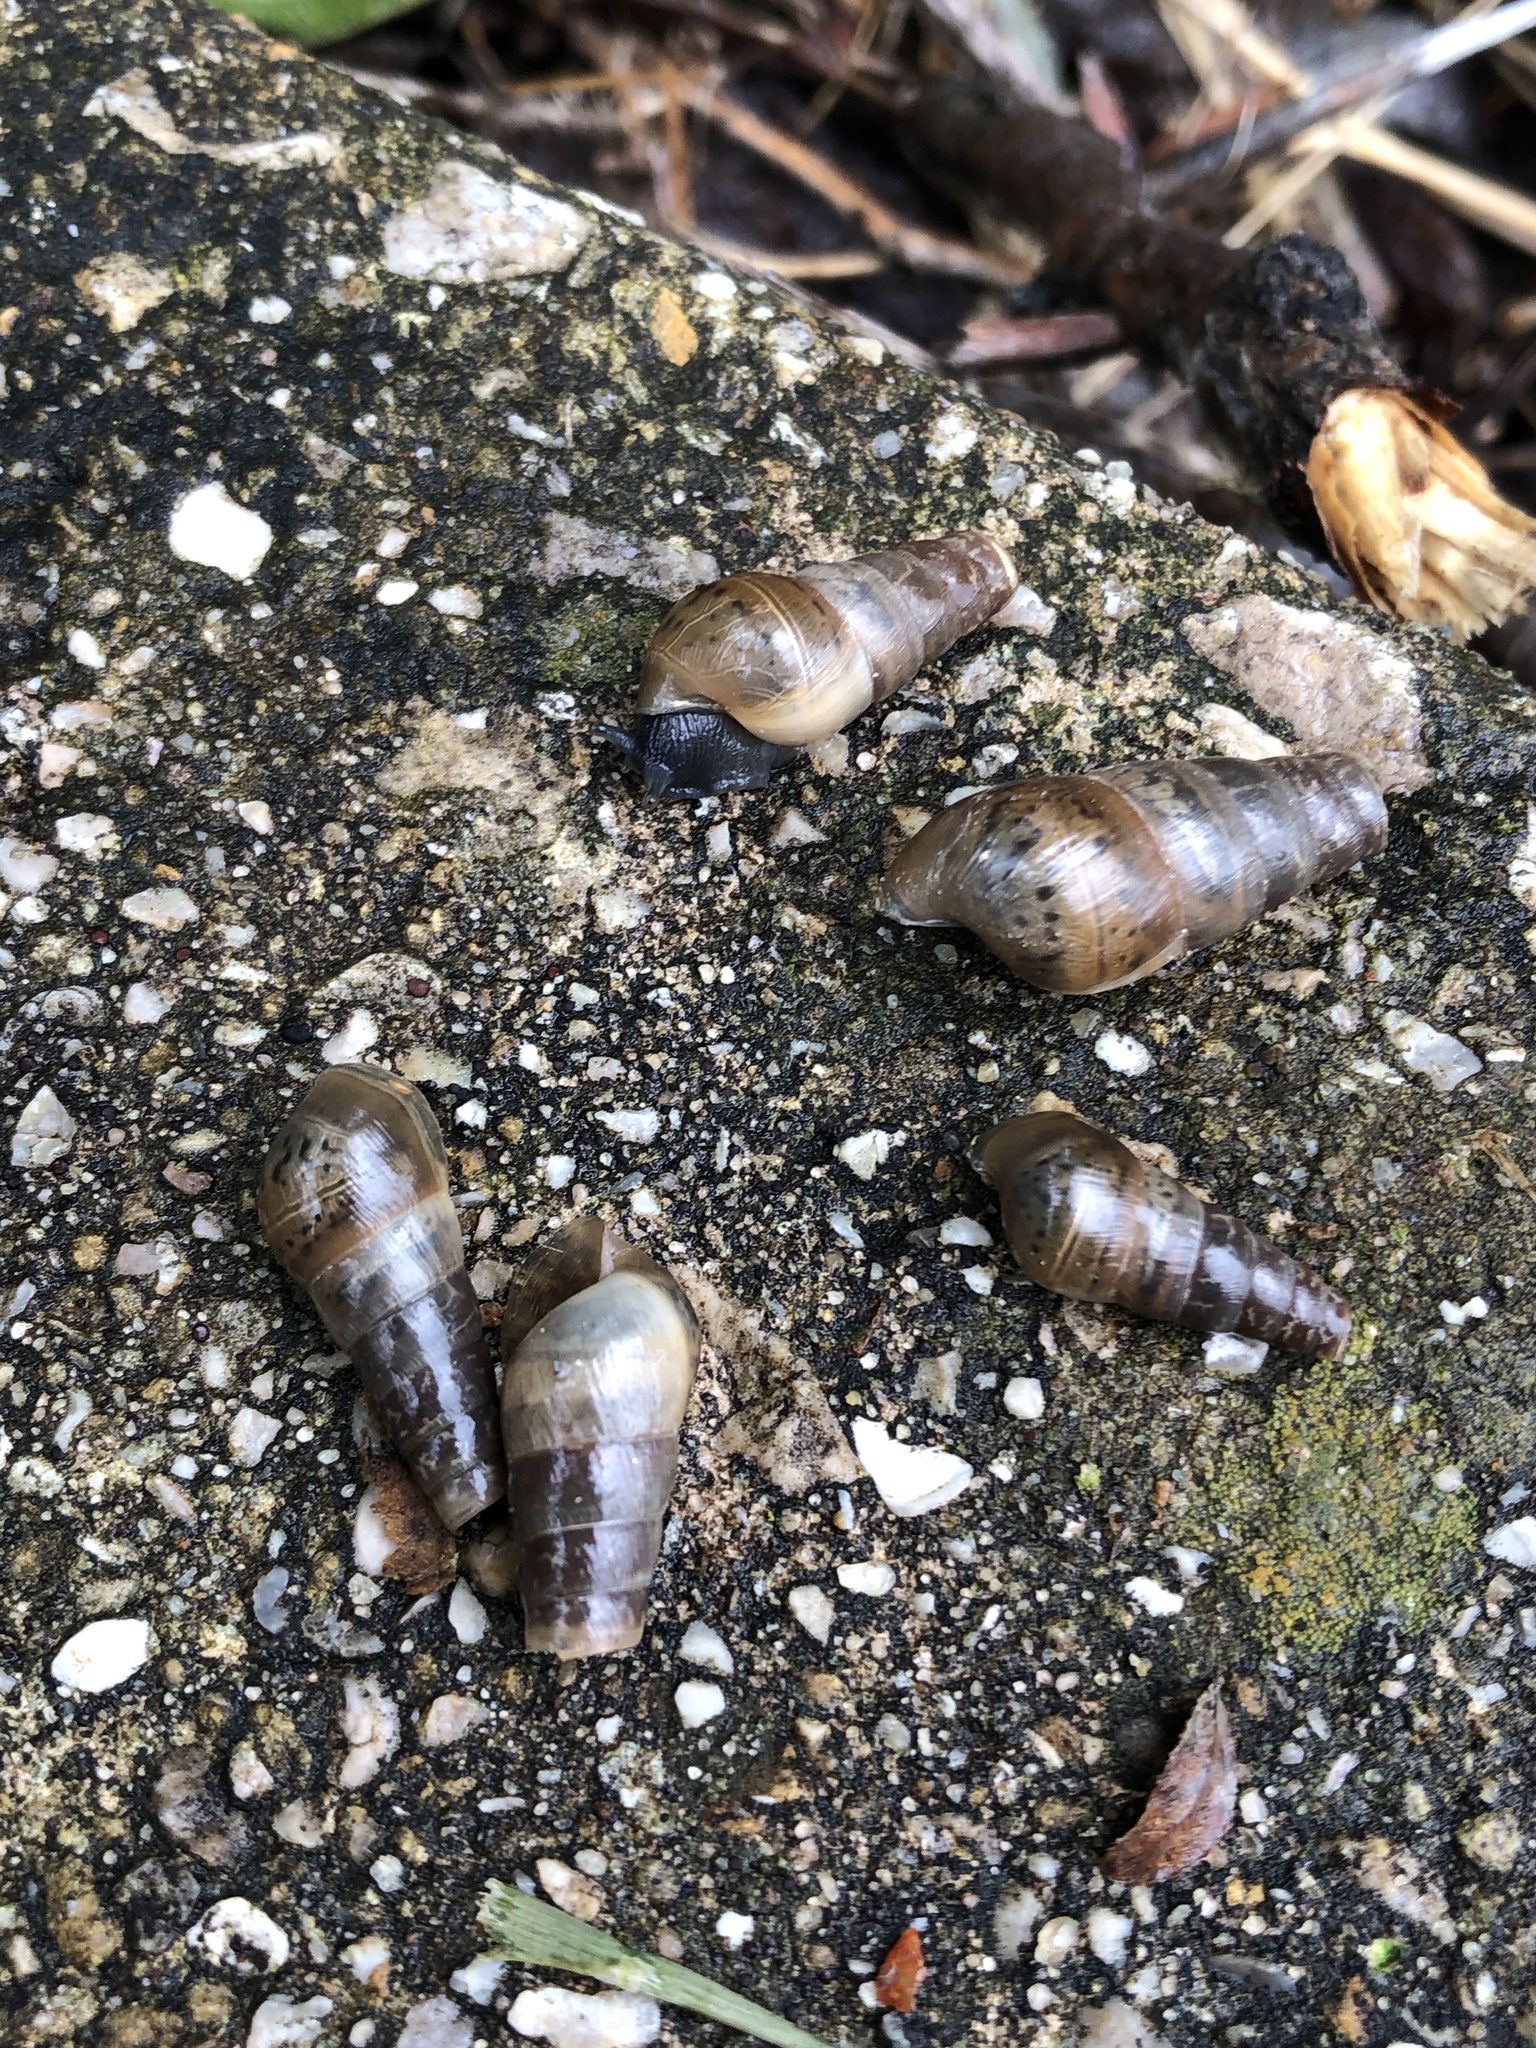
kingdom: Animalia
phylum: Mollusca
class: Gastropoda
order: Stylommatophora
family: Achatinidae
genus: Rumina
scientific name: Rumina decollata
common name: Decollate snail
